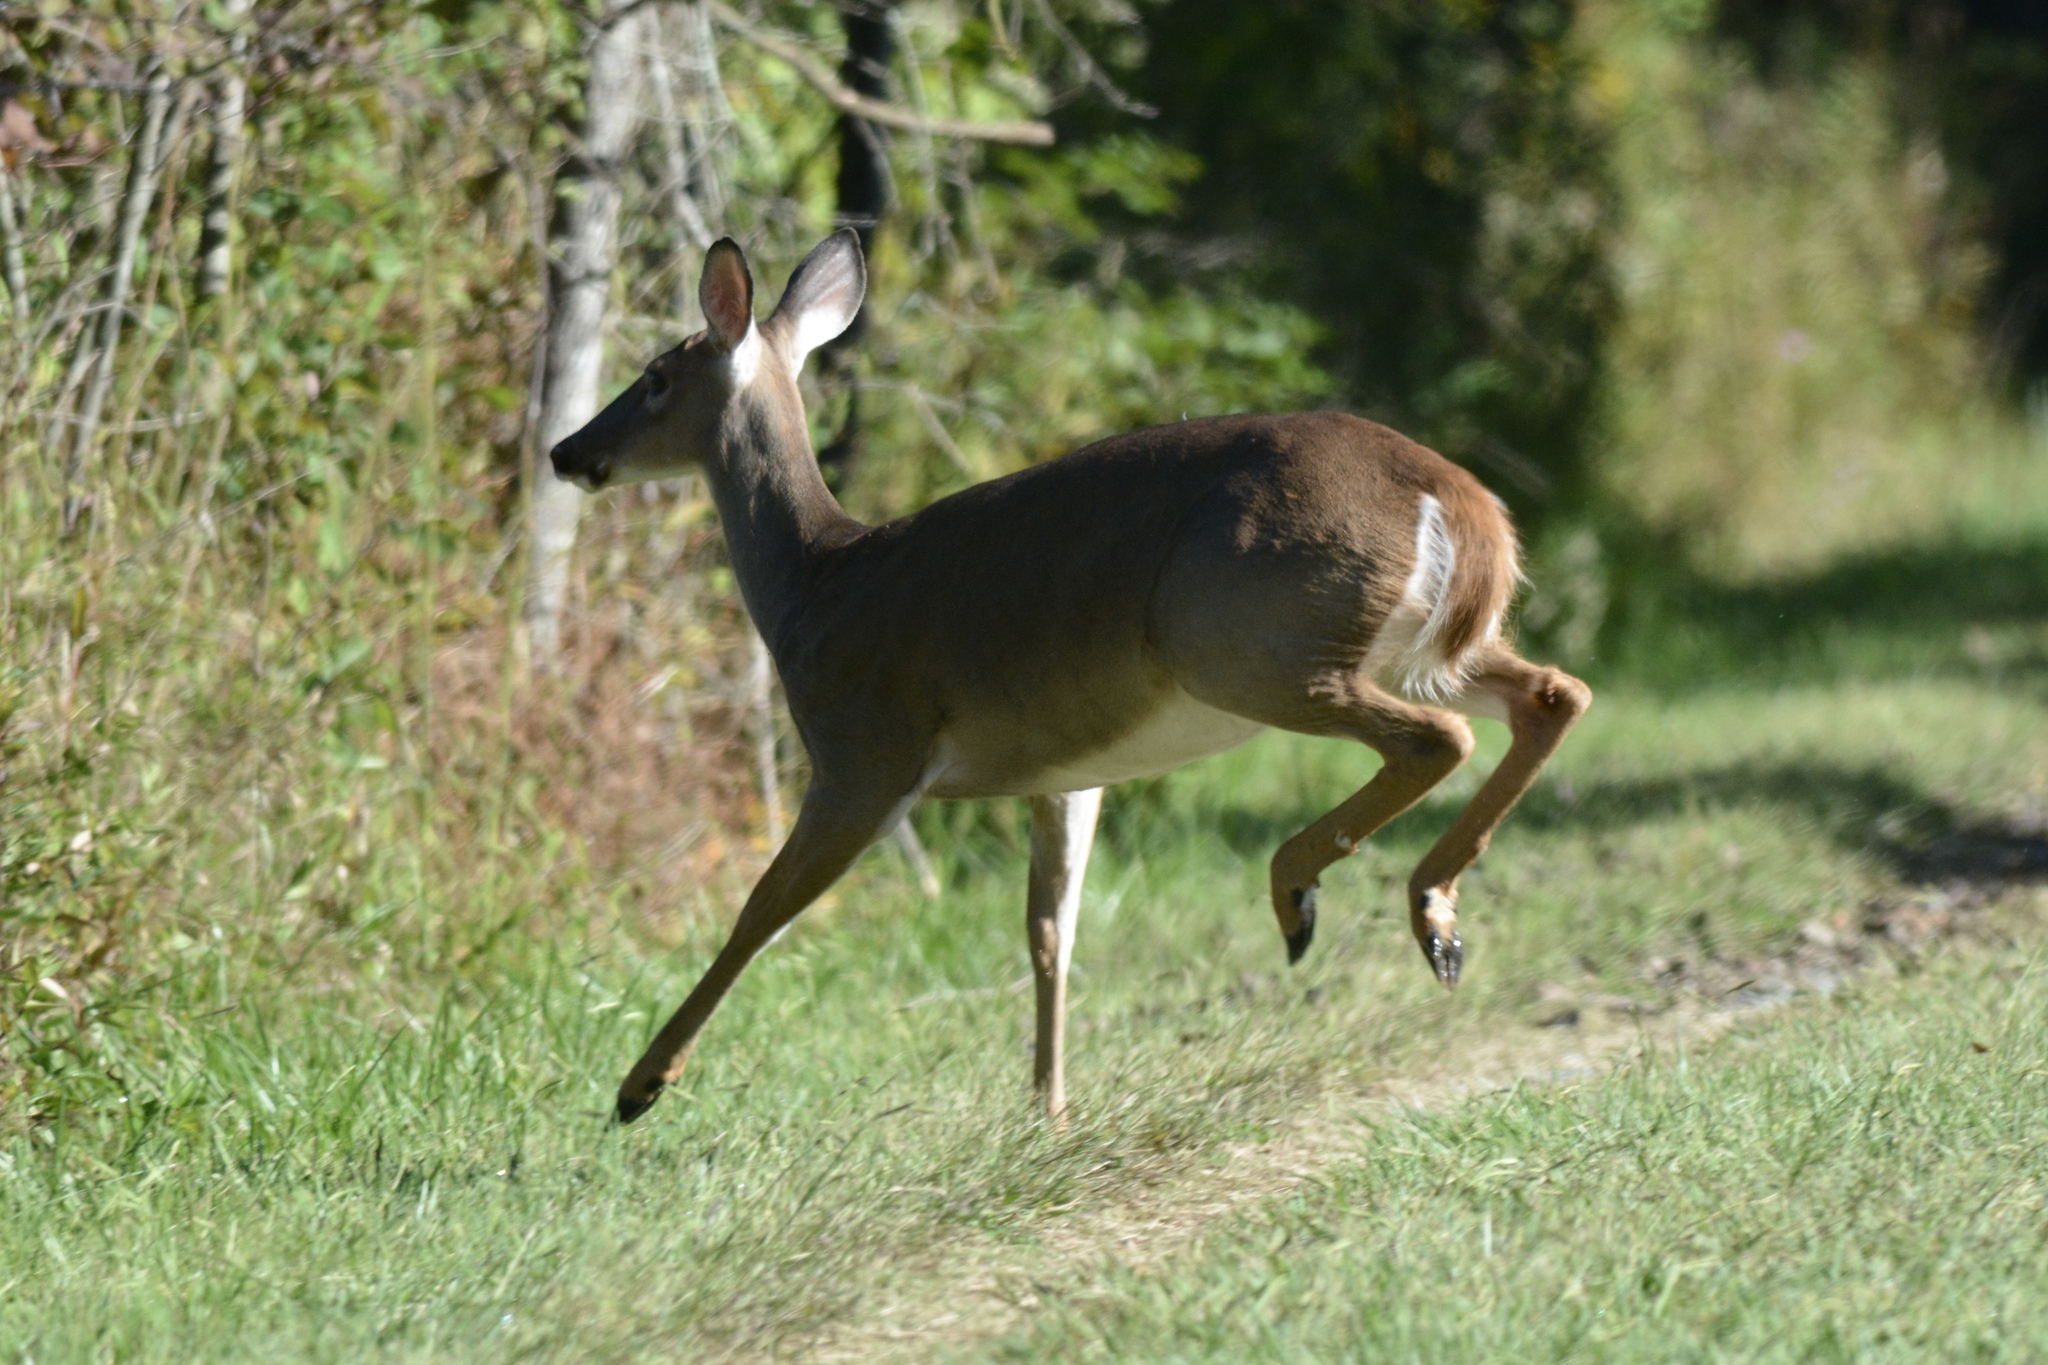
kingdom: Animalia
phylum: Chordata
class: Mammalia
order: Artiodactyla
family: Cervidae
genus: Odocoileus
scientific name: Odocoileus virginianus
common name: White-tailed deer
